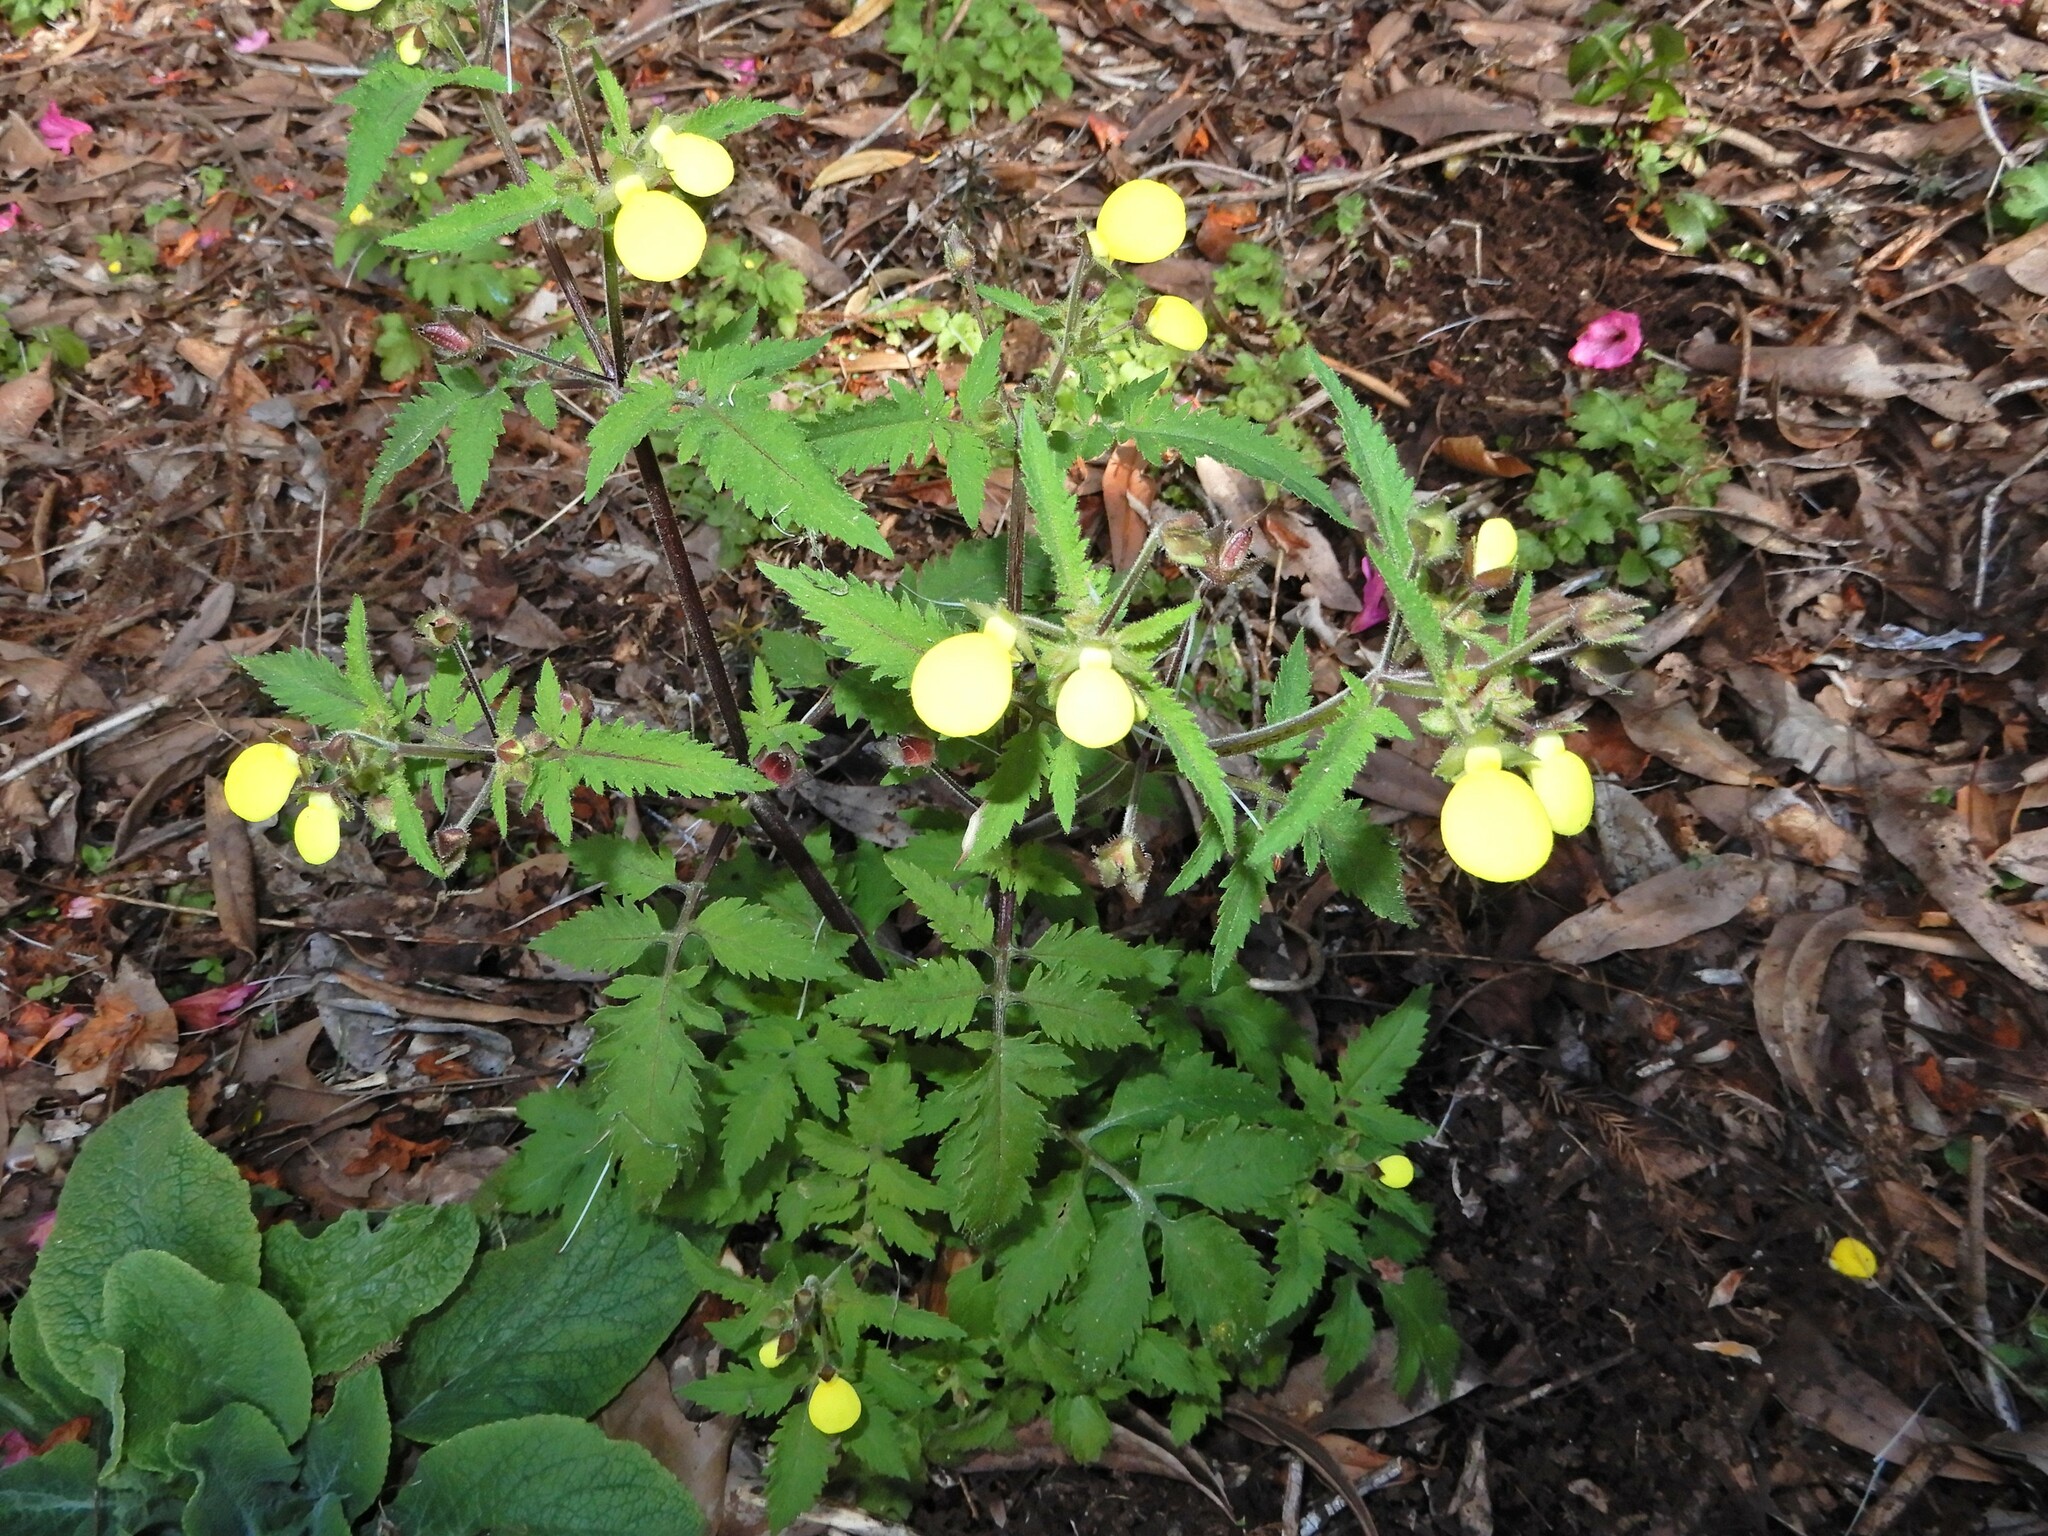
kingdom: Plantae
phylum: Tracheophyta
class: Magnoliopsida
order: Lamiales
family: Calceolariaceae
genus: Calceolaria
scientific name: Calceolaria tripartita
